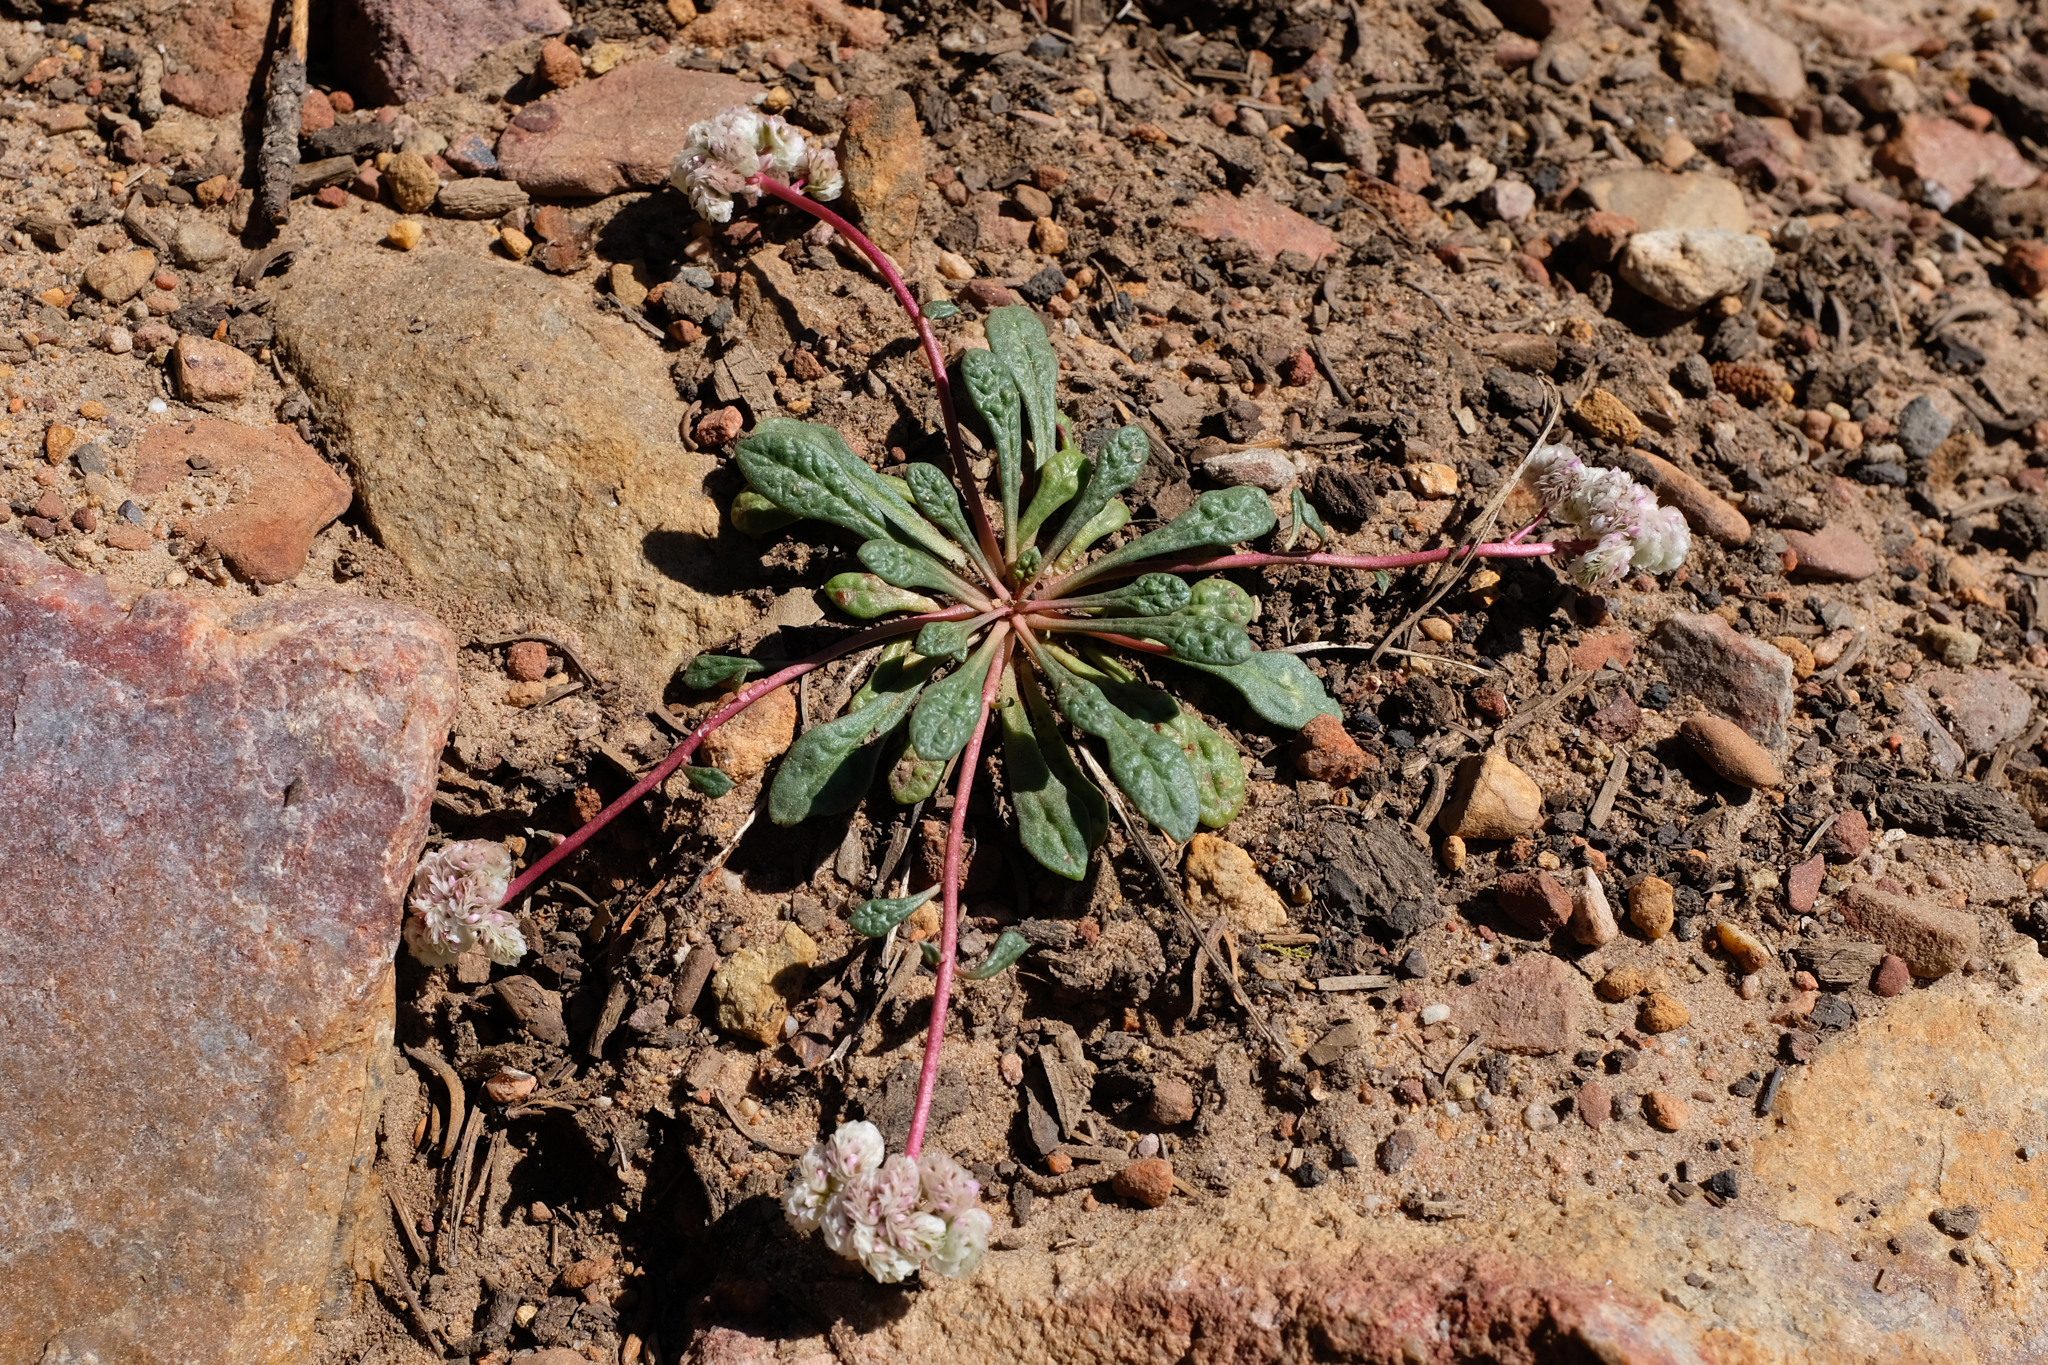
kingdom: Plantae
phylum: Tracheophyta
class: Magnoliopsida
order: Caryophyllales
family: Montiaceae
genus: Calyptridium
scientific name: Calyptridium monospermum
